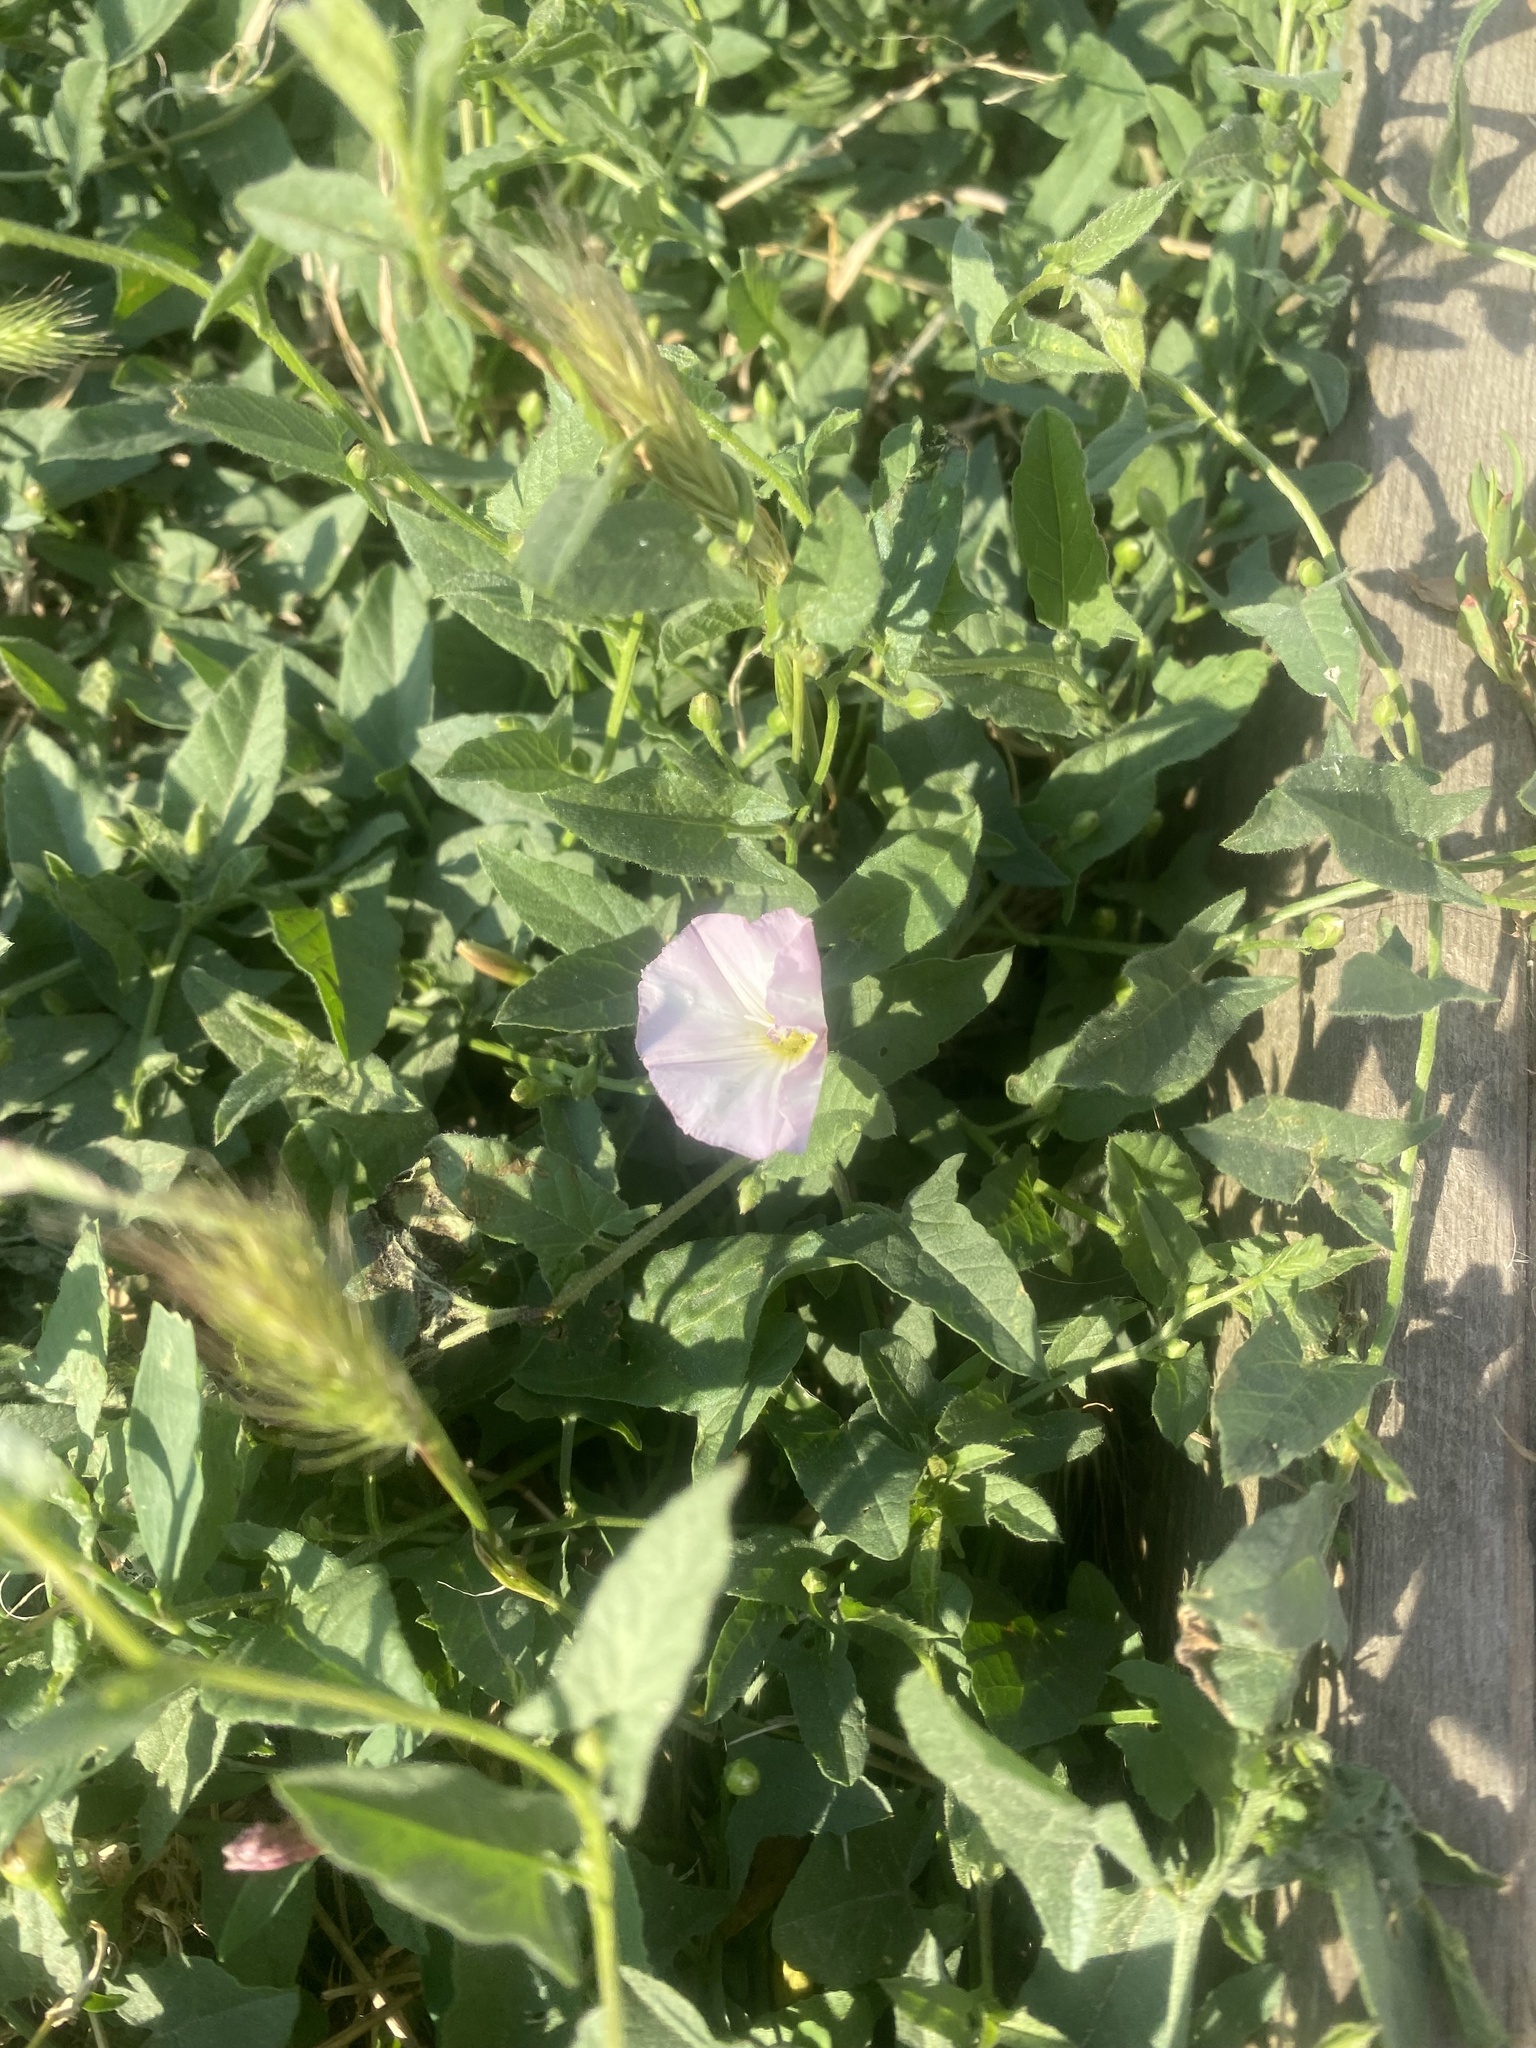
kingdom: Plantae
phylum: Tracheophyta
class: Magnoliopsida
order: Solanales
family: Convolvulaceae
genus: Convolvulus
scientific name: Convolvulus arvensis
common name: Field bindweed
